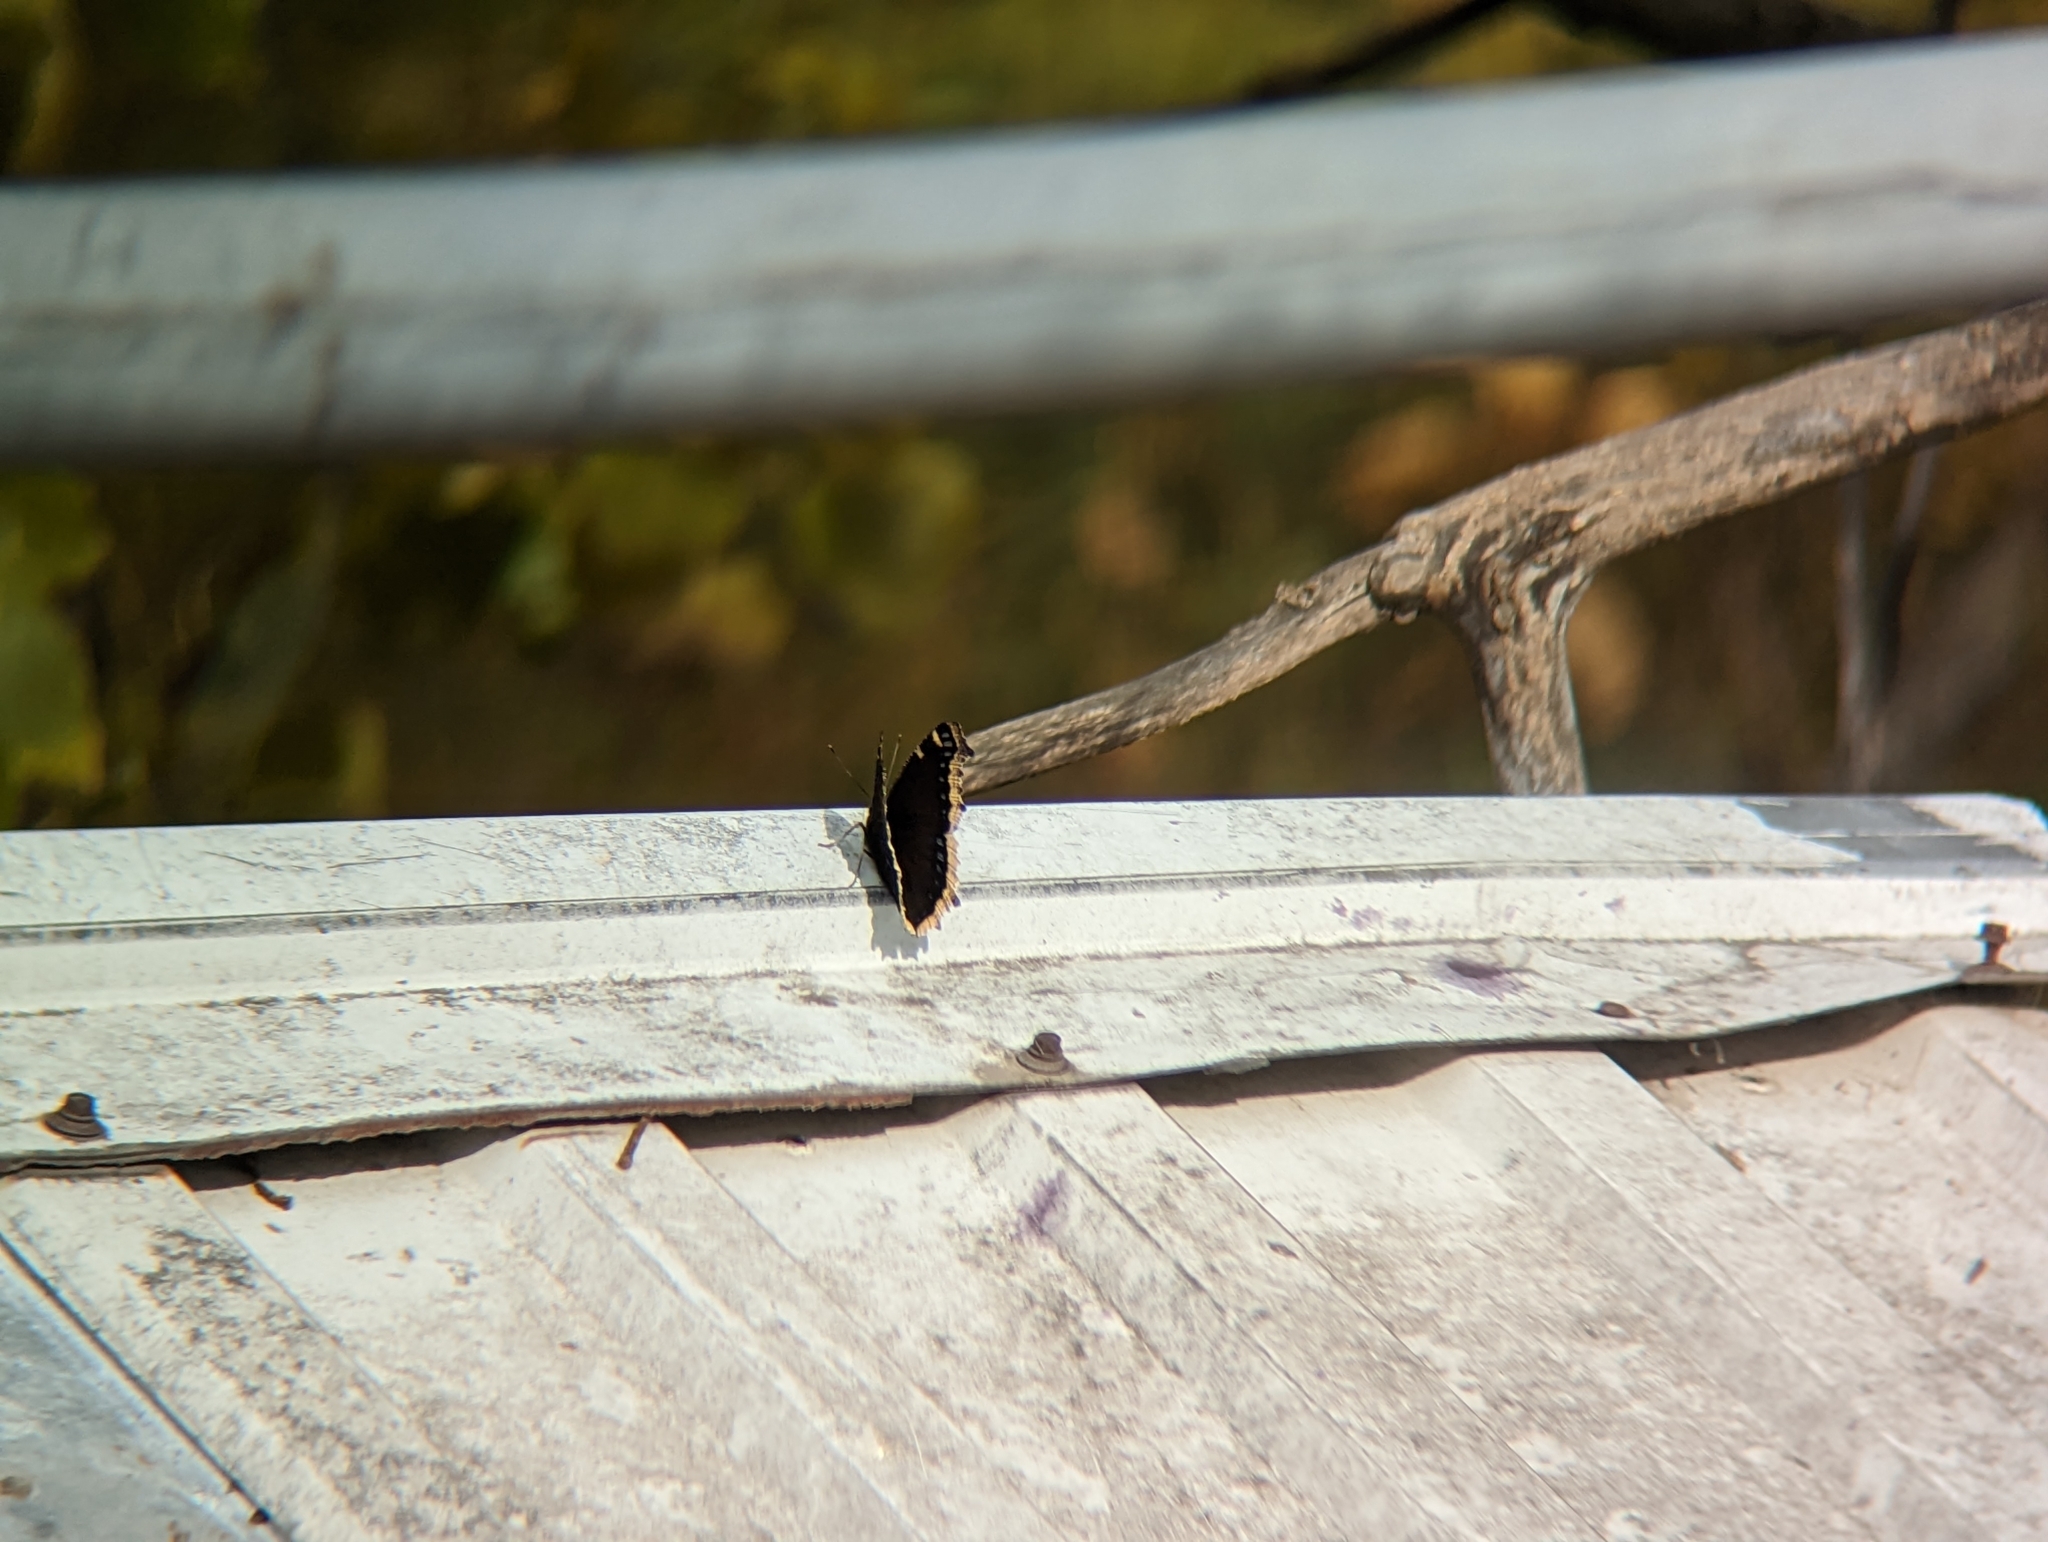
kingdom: Animalia
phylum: Arthropoda
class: Insecta
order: Lepidoptera
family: Nymphalidae
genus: Nymphalis
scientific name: Nymphalis antiopa
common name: Camberwell beauty
